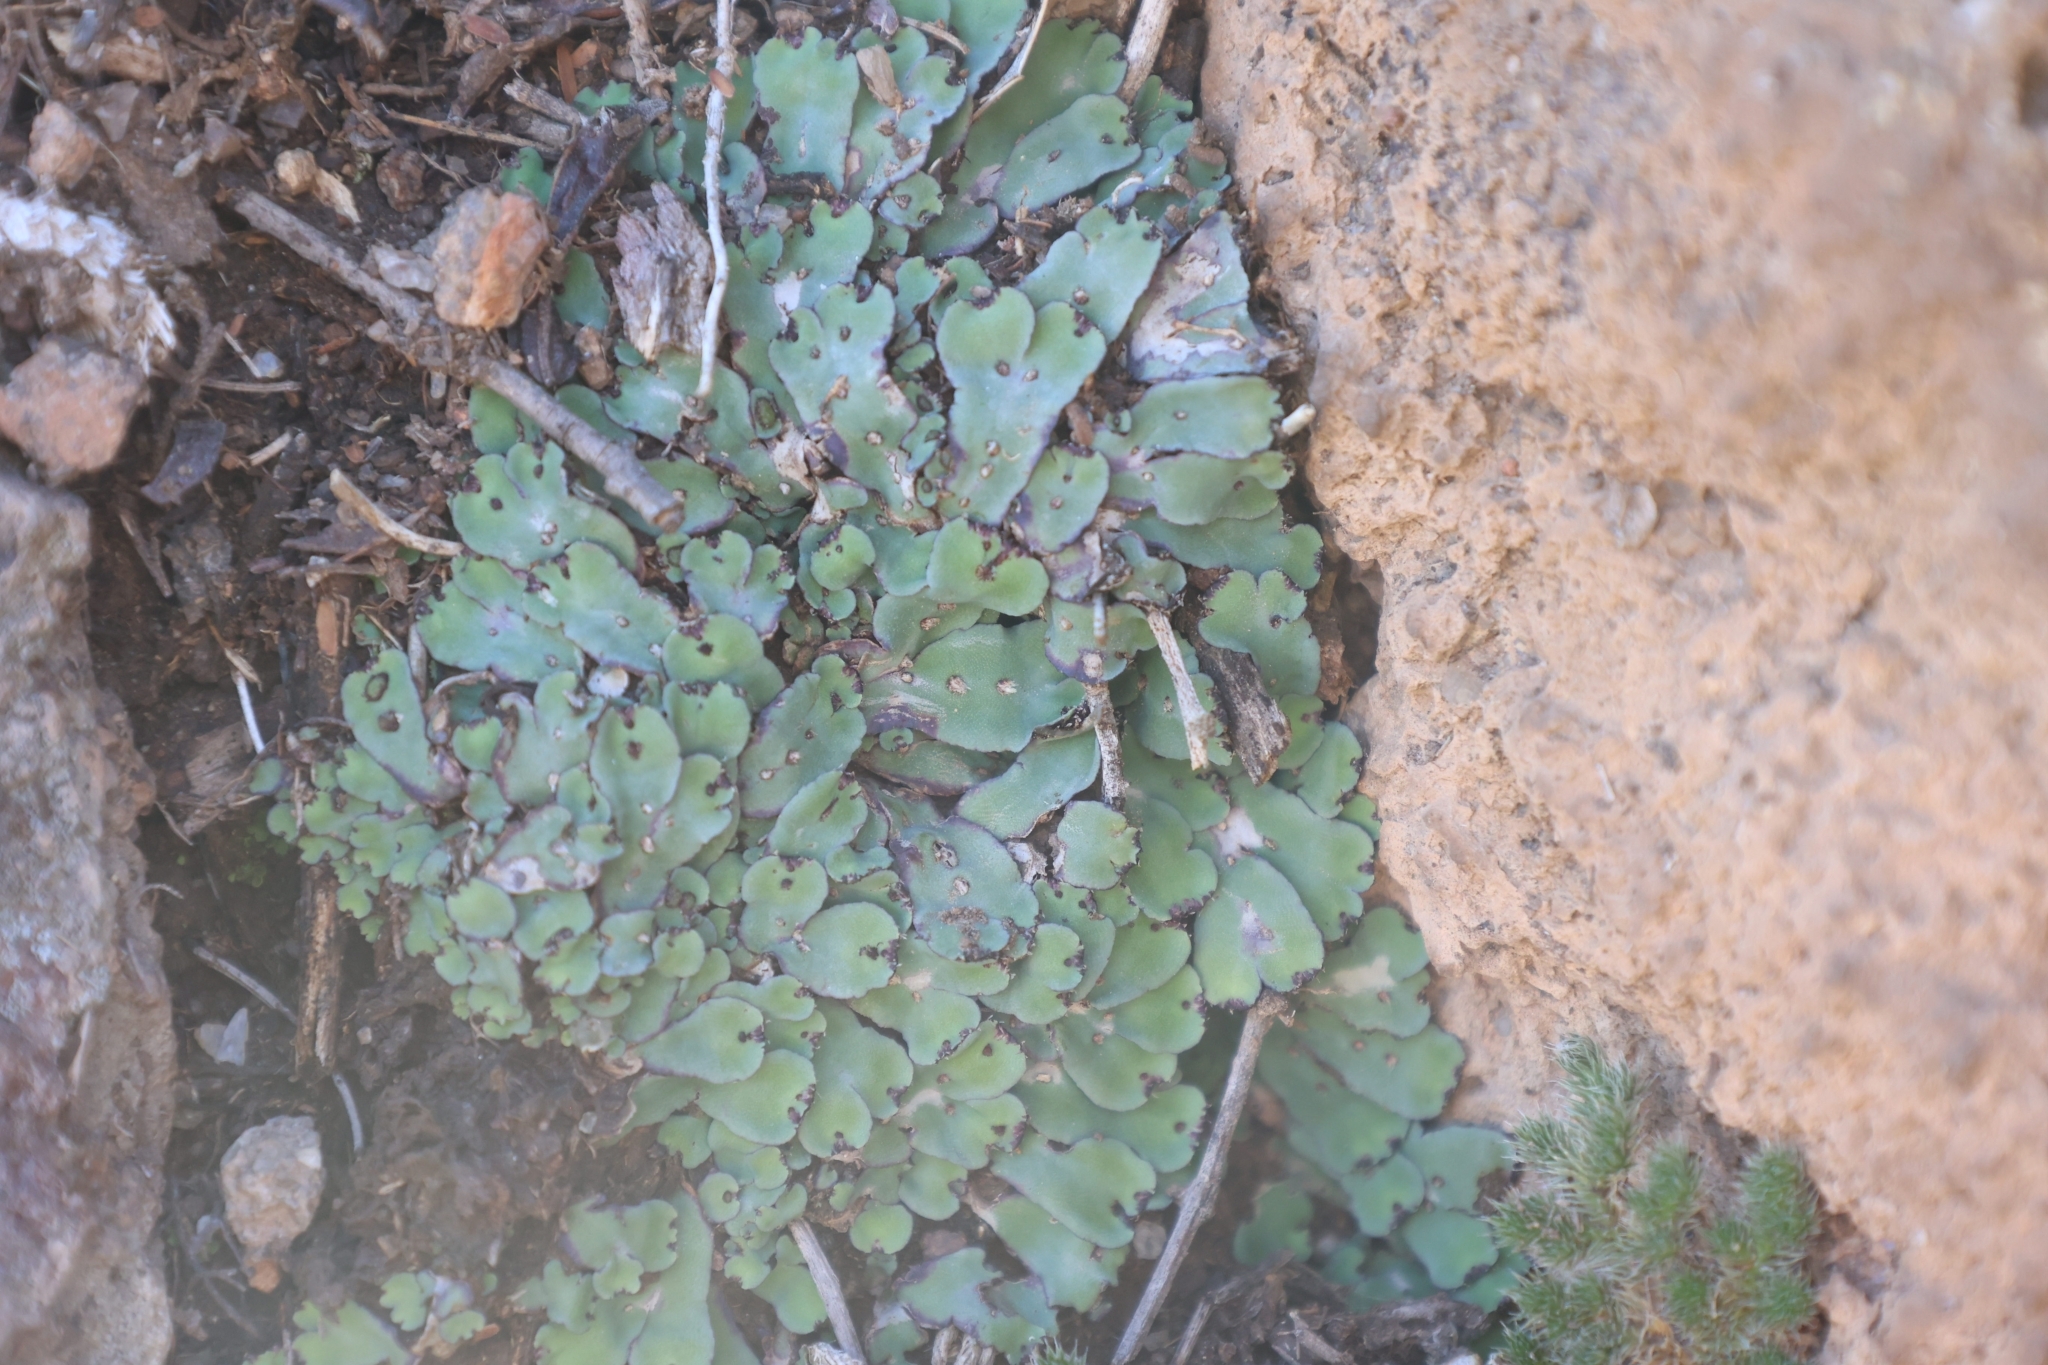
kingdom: Plantae
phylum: Marchantiophyta
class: Marchantiopsida
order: Marchantiales
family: Aytoniaceae
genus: Plagiochasma
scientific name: Plagiochasma rupestre
